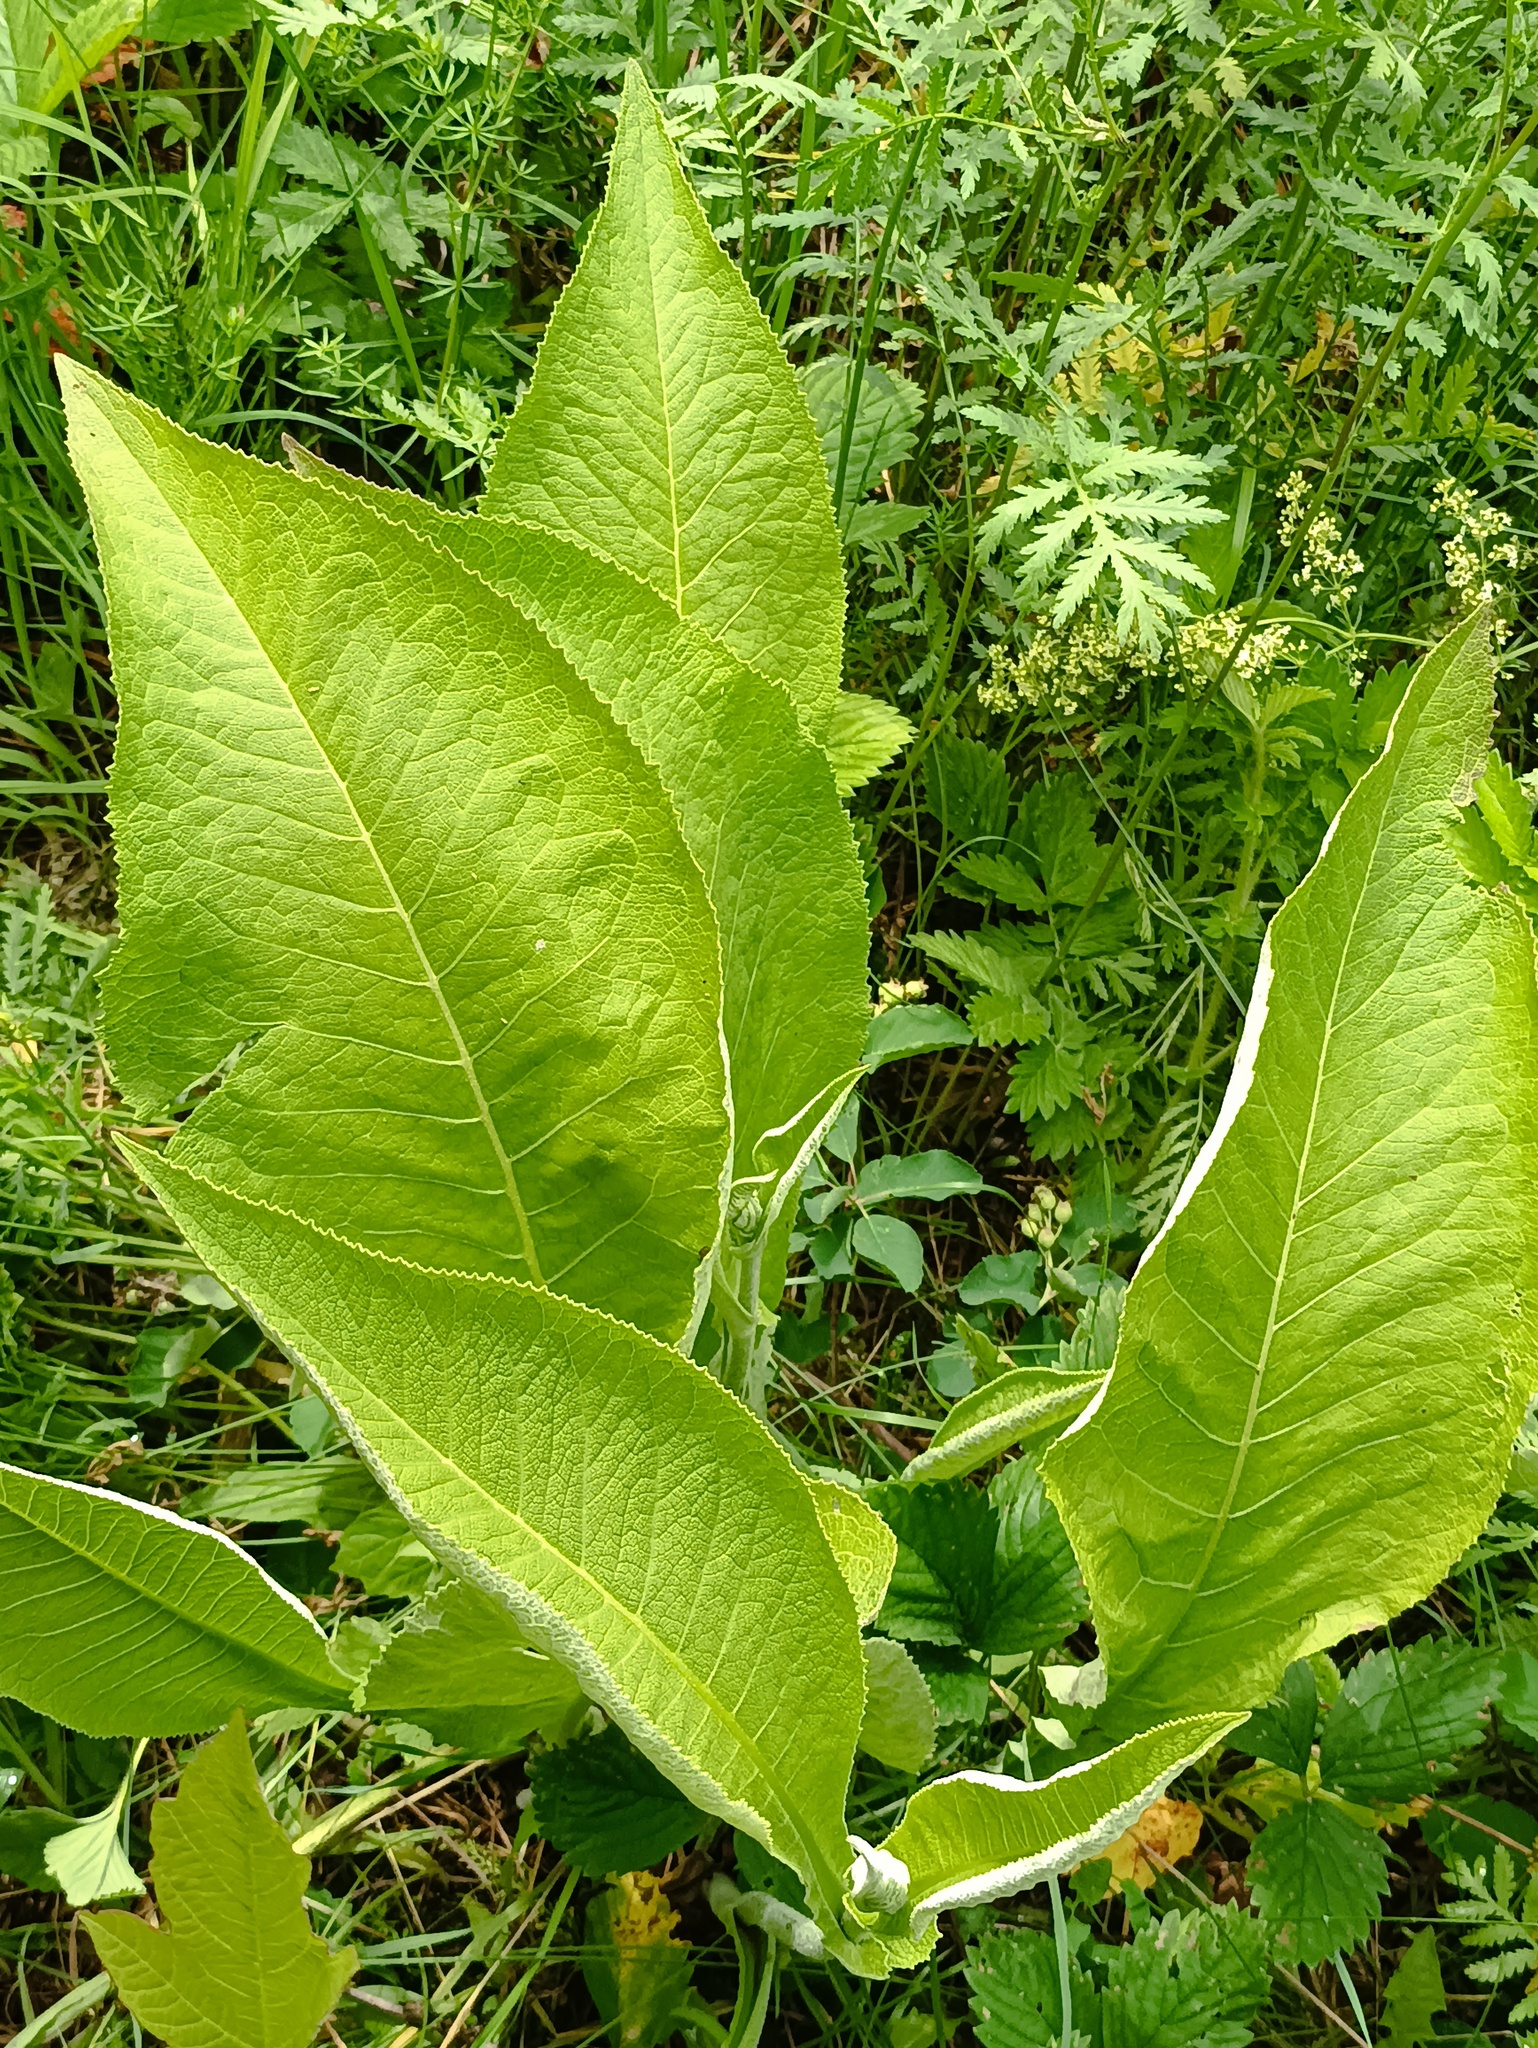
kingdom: Plantae
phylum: Tracheophyta
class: Magnoliopsida
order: Asterales
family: Asteraceae
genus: Inula
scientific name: Inula helenium
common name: Elecampane
